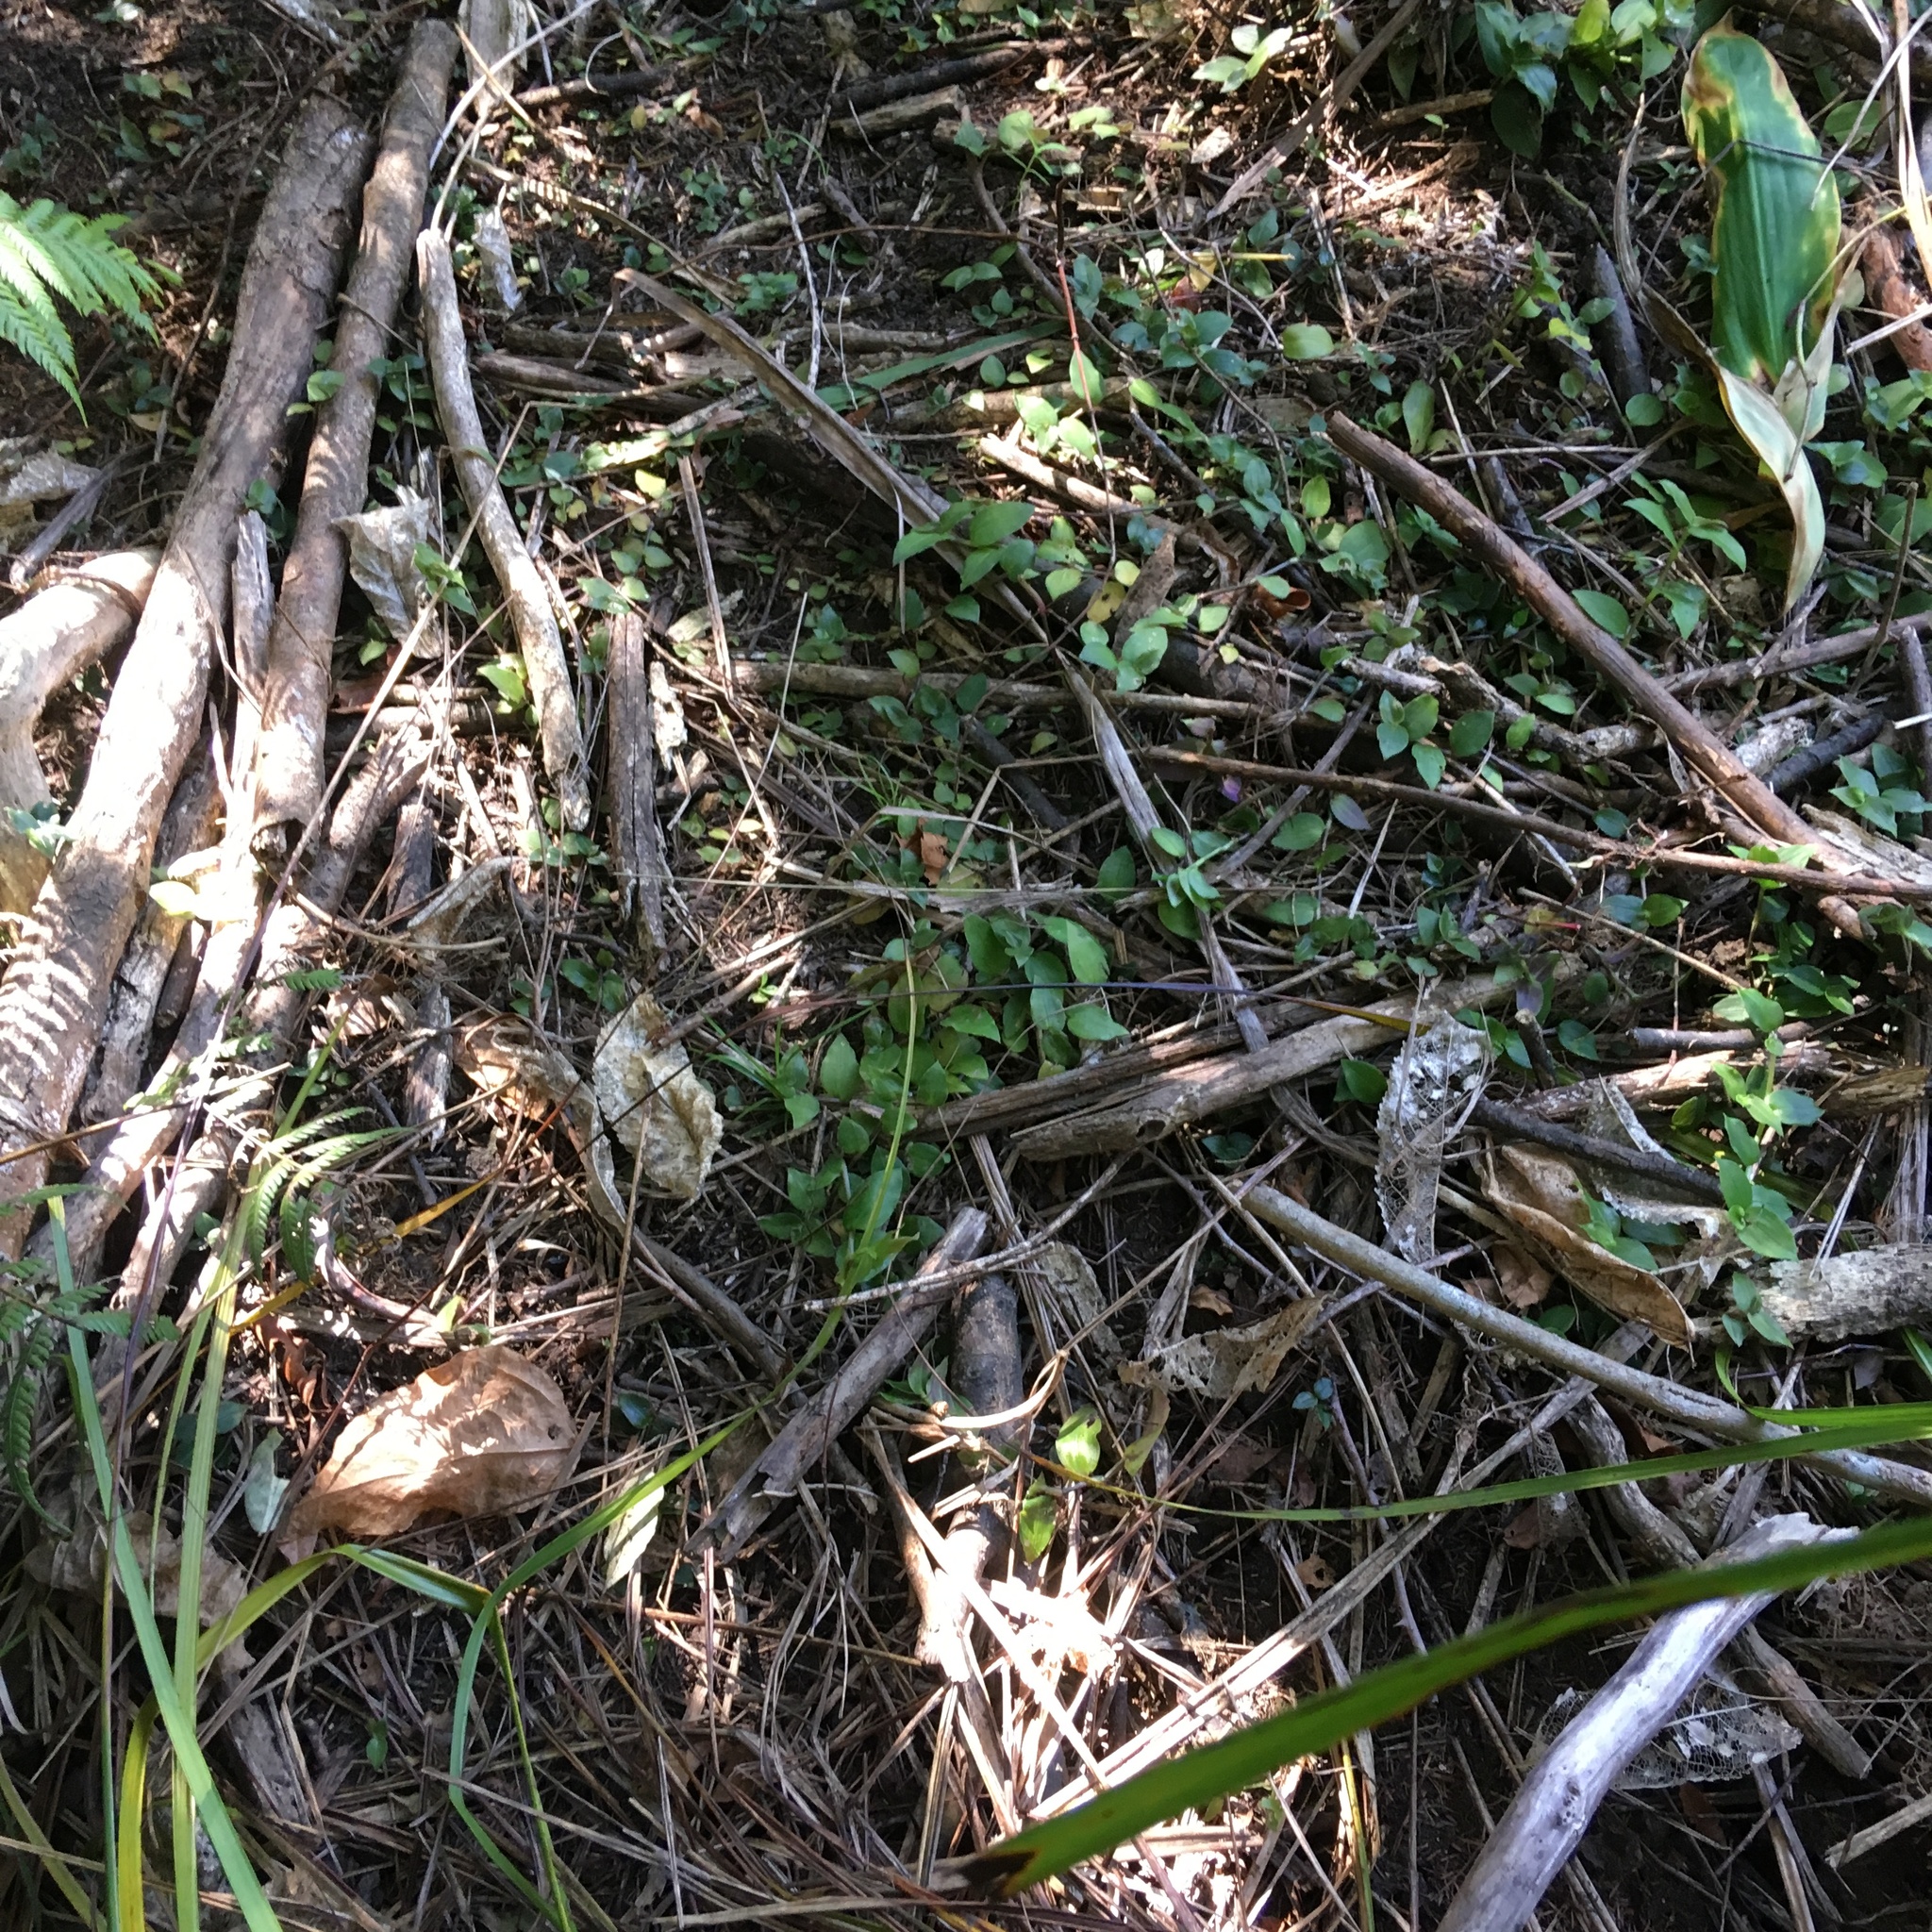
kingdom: Plantae
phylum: Tracheophyta
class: Liliopsida
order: Commelinales
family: Commelinaceae
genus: Tradescantia
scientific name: Tradescantia fluminensis
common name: Wandering-jew
